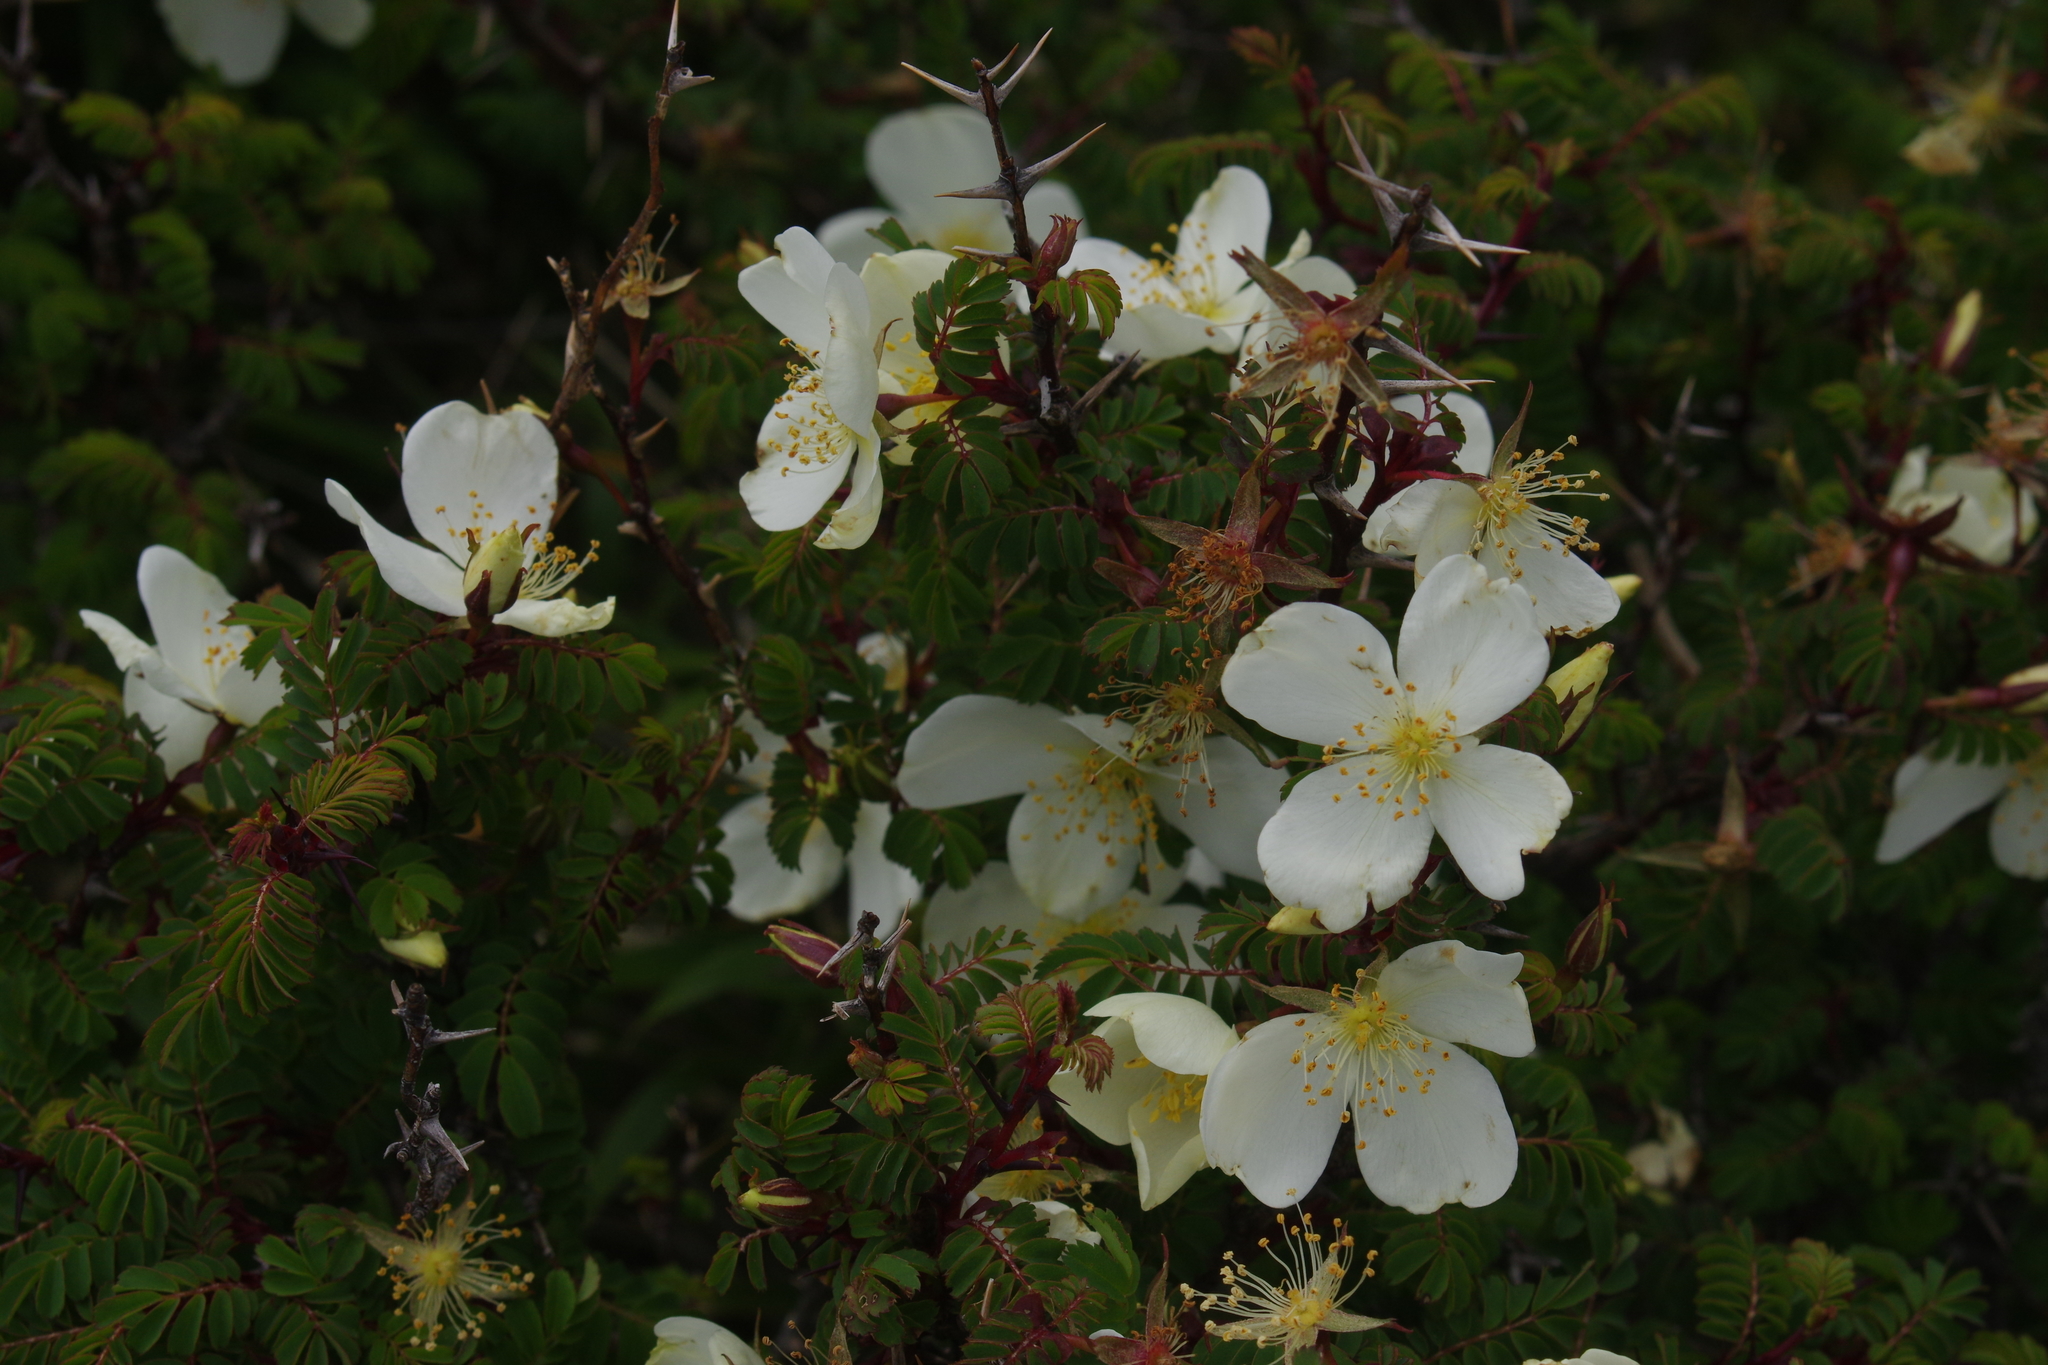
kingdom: Plantae
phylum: Tracheophyta
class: Magnoliopsida
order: Rosales
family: Rosaceae
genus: Rosa
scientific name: Rosa morrisonensis
